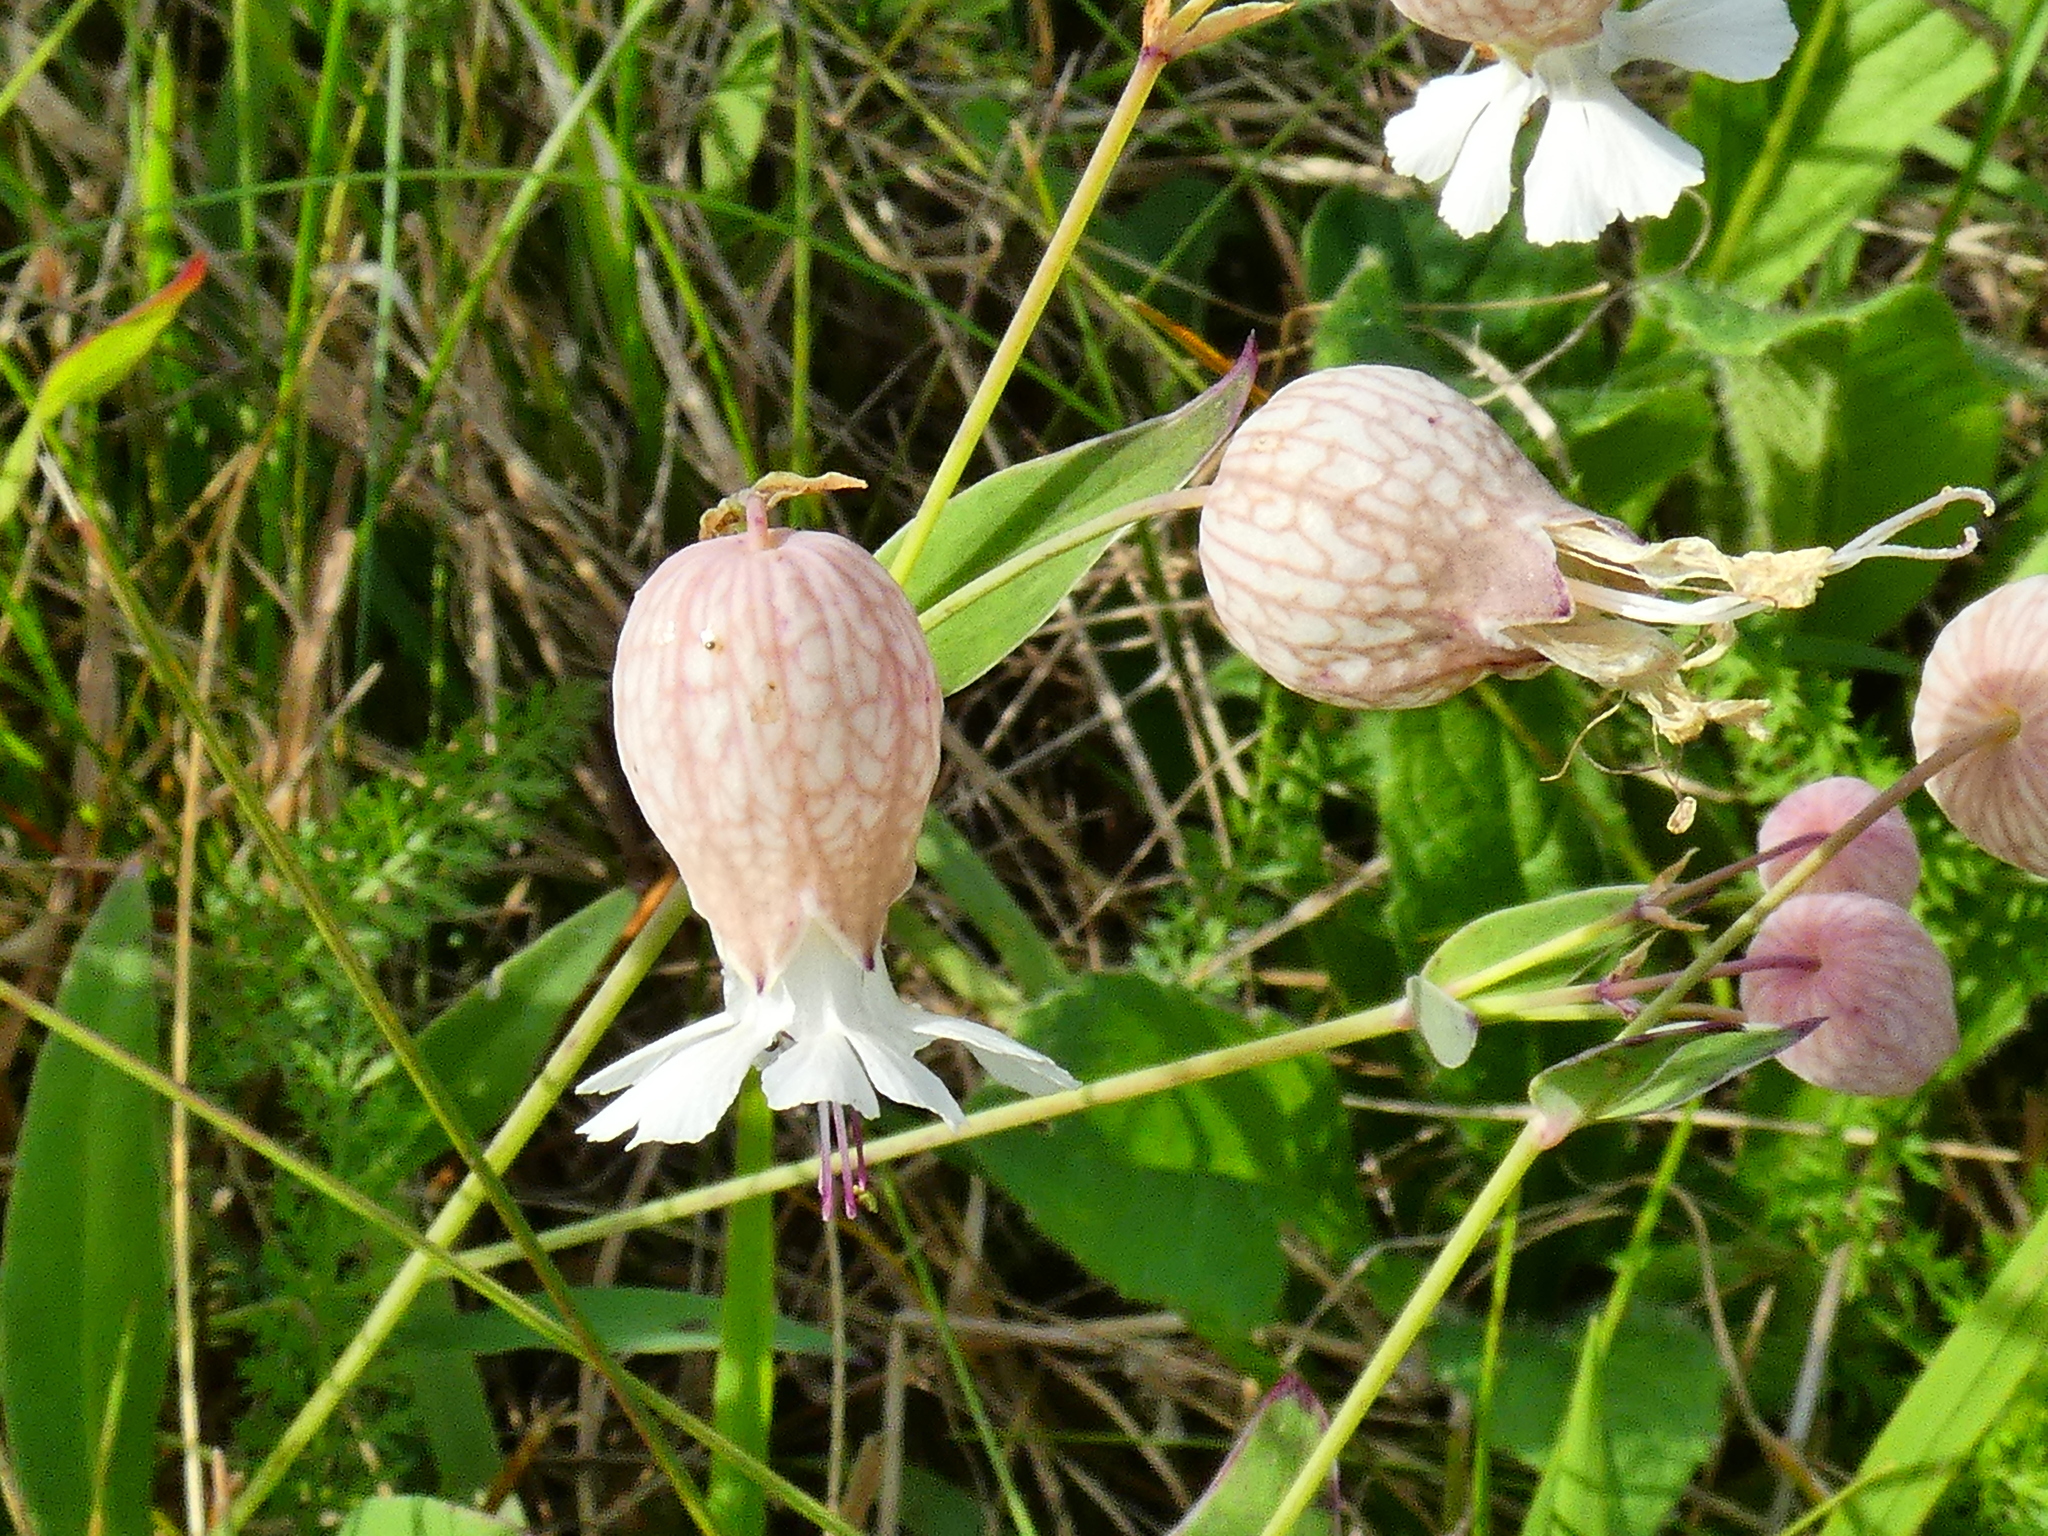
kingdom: Plantae
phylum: Tracheophyta
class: Magnoliopsida
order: Caryophyllales
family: Caryophyllaceae
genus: Silene
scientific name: Silene vulgaris
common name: Bladder campion
